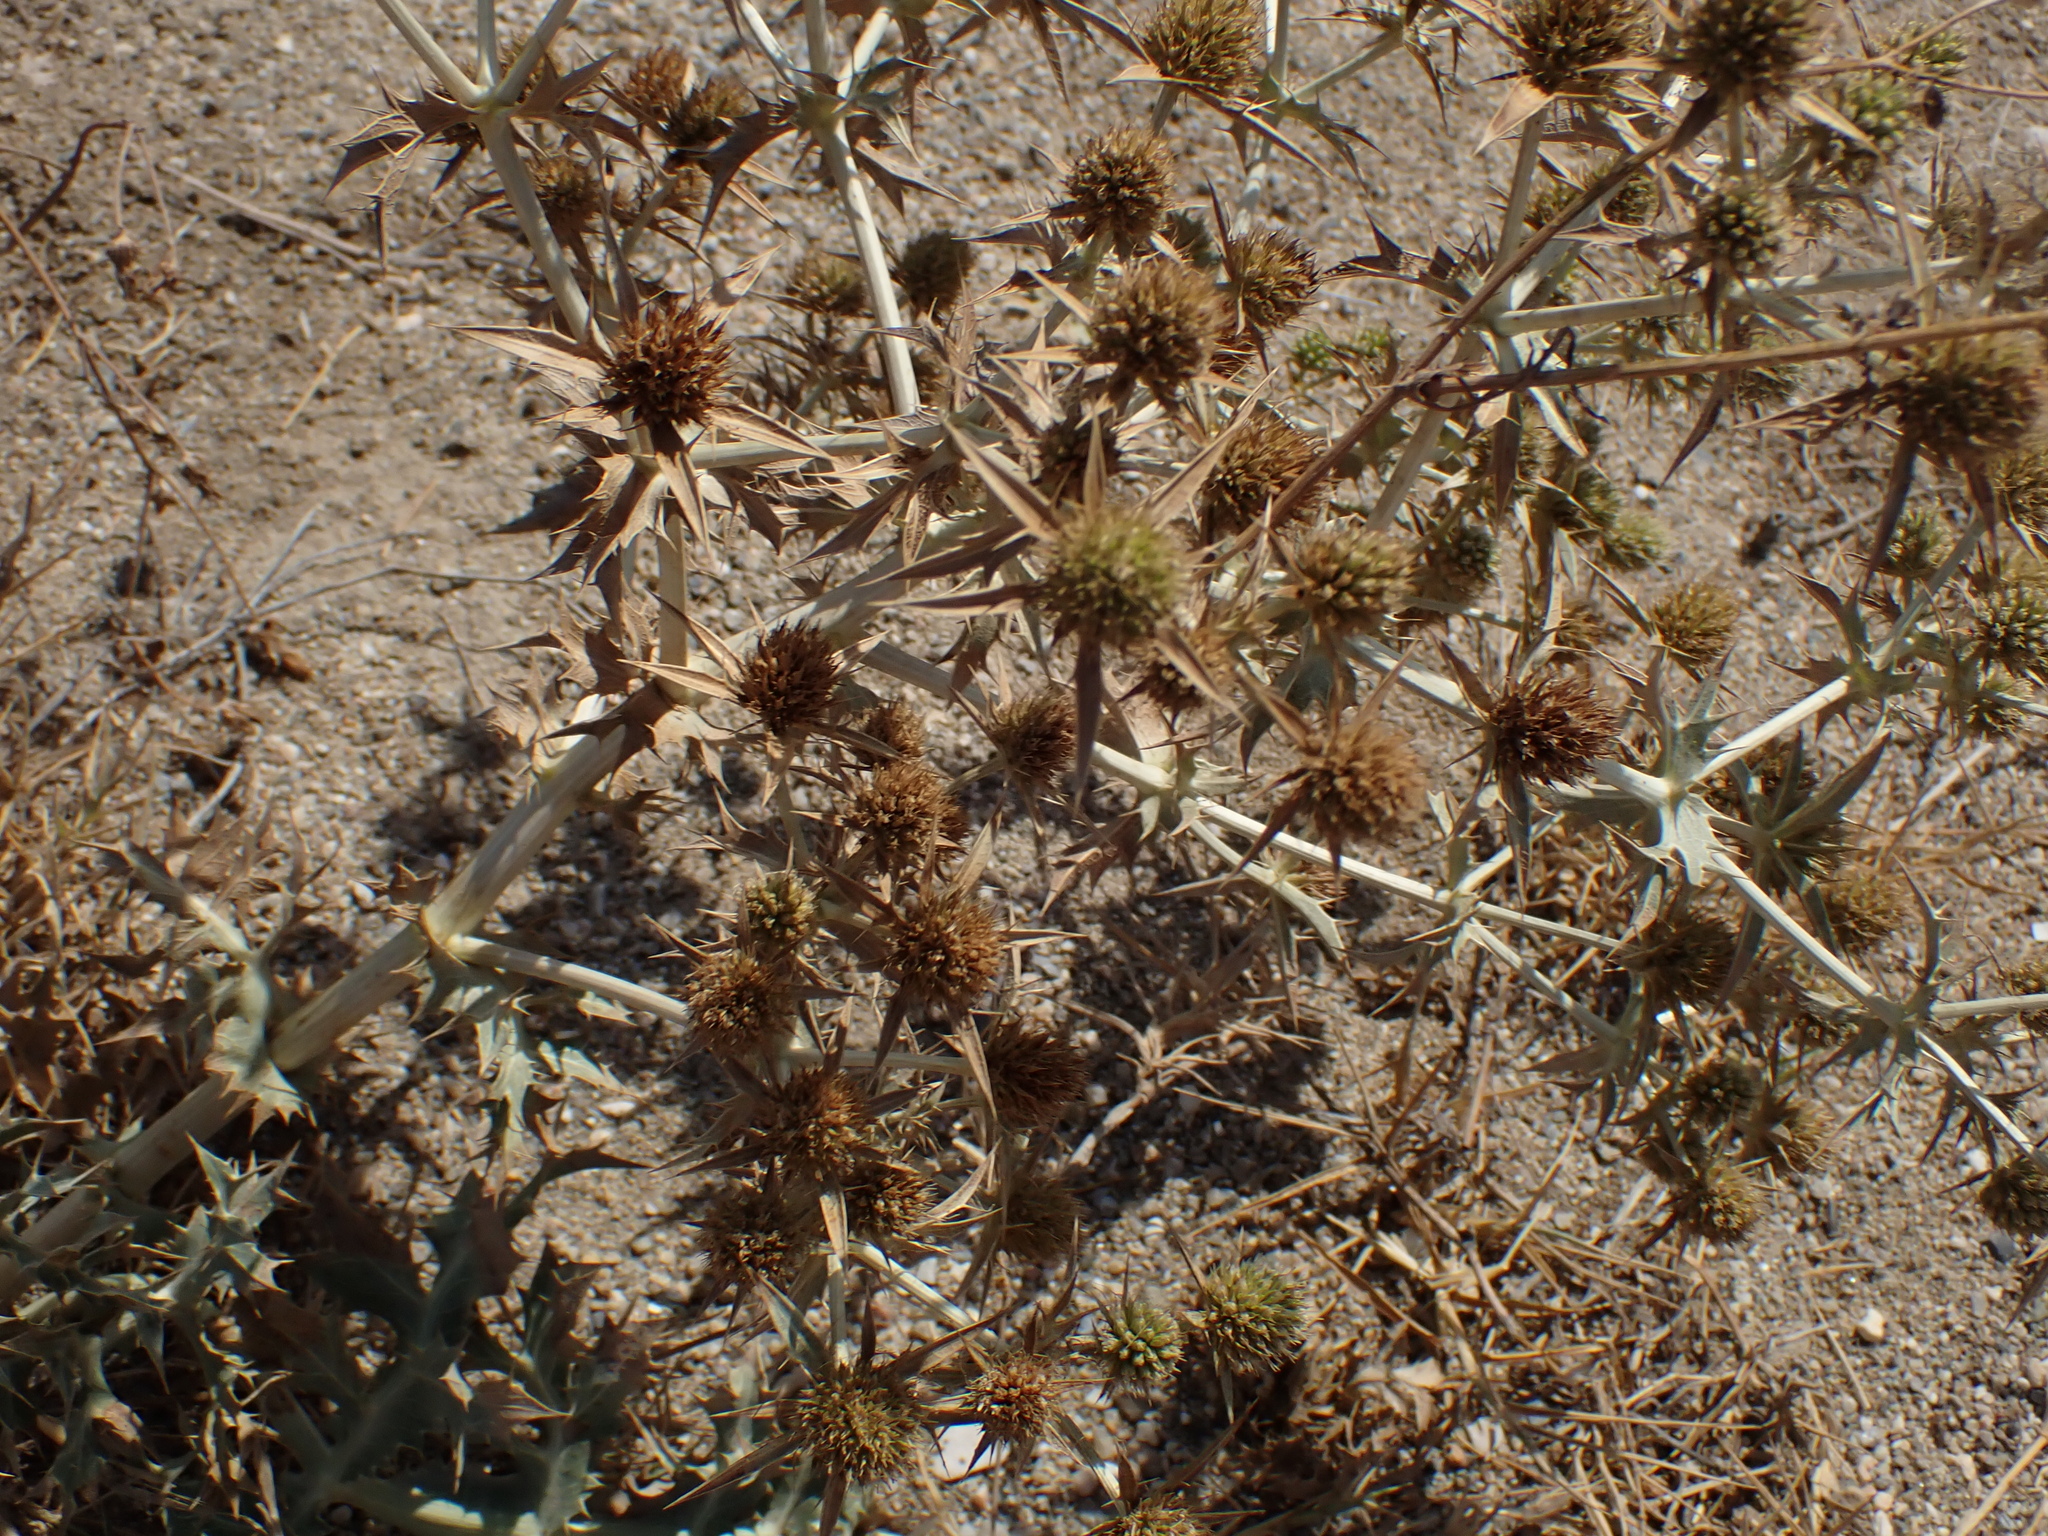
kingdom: Plantae
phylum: Tracheophyta
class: Magnoliopsida
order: Apiales
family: Apiaceae
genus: Eryngium
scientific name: Eryngium campestre
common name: Field eryngo
